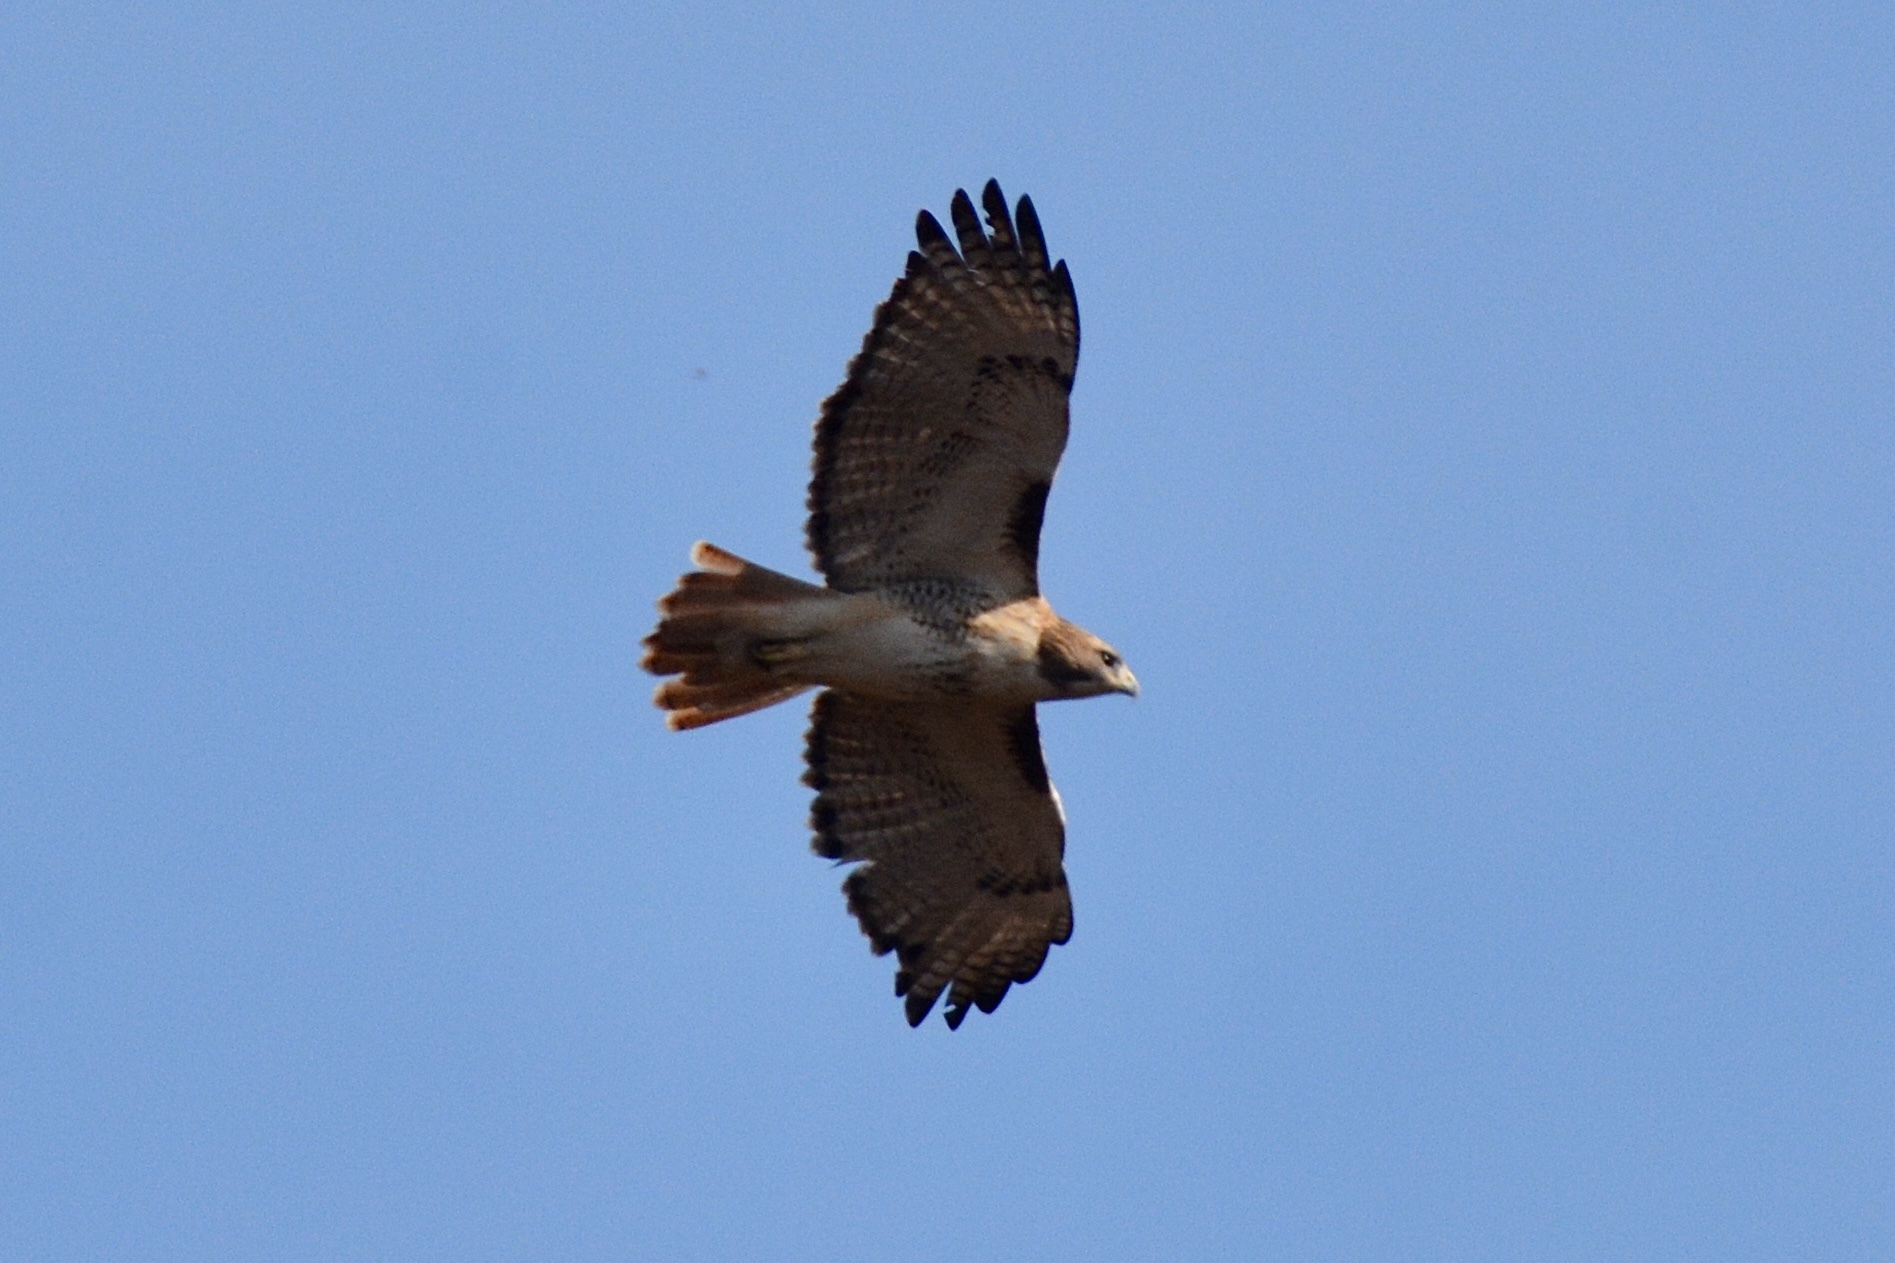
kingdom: Animalia
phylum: Chordata
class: Aves
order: Accipitriformes
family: Accipitridae
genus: Buteo
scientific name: Buteo jamaicensis
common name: Red-tailed hawk
